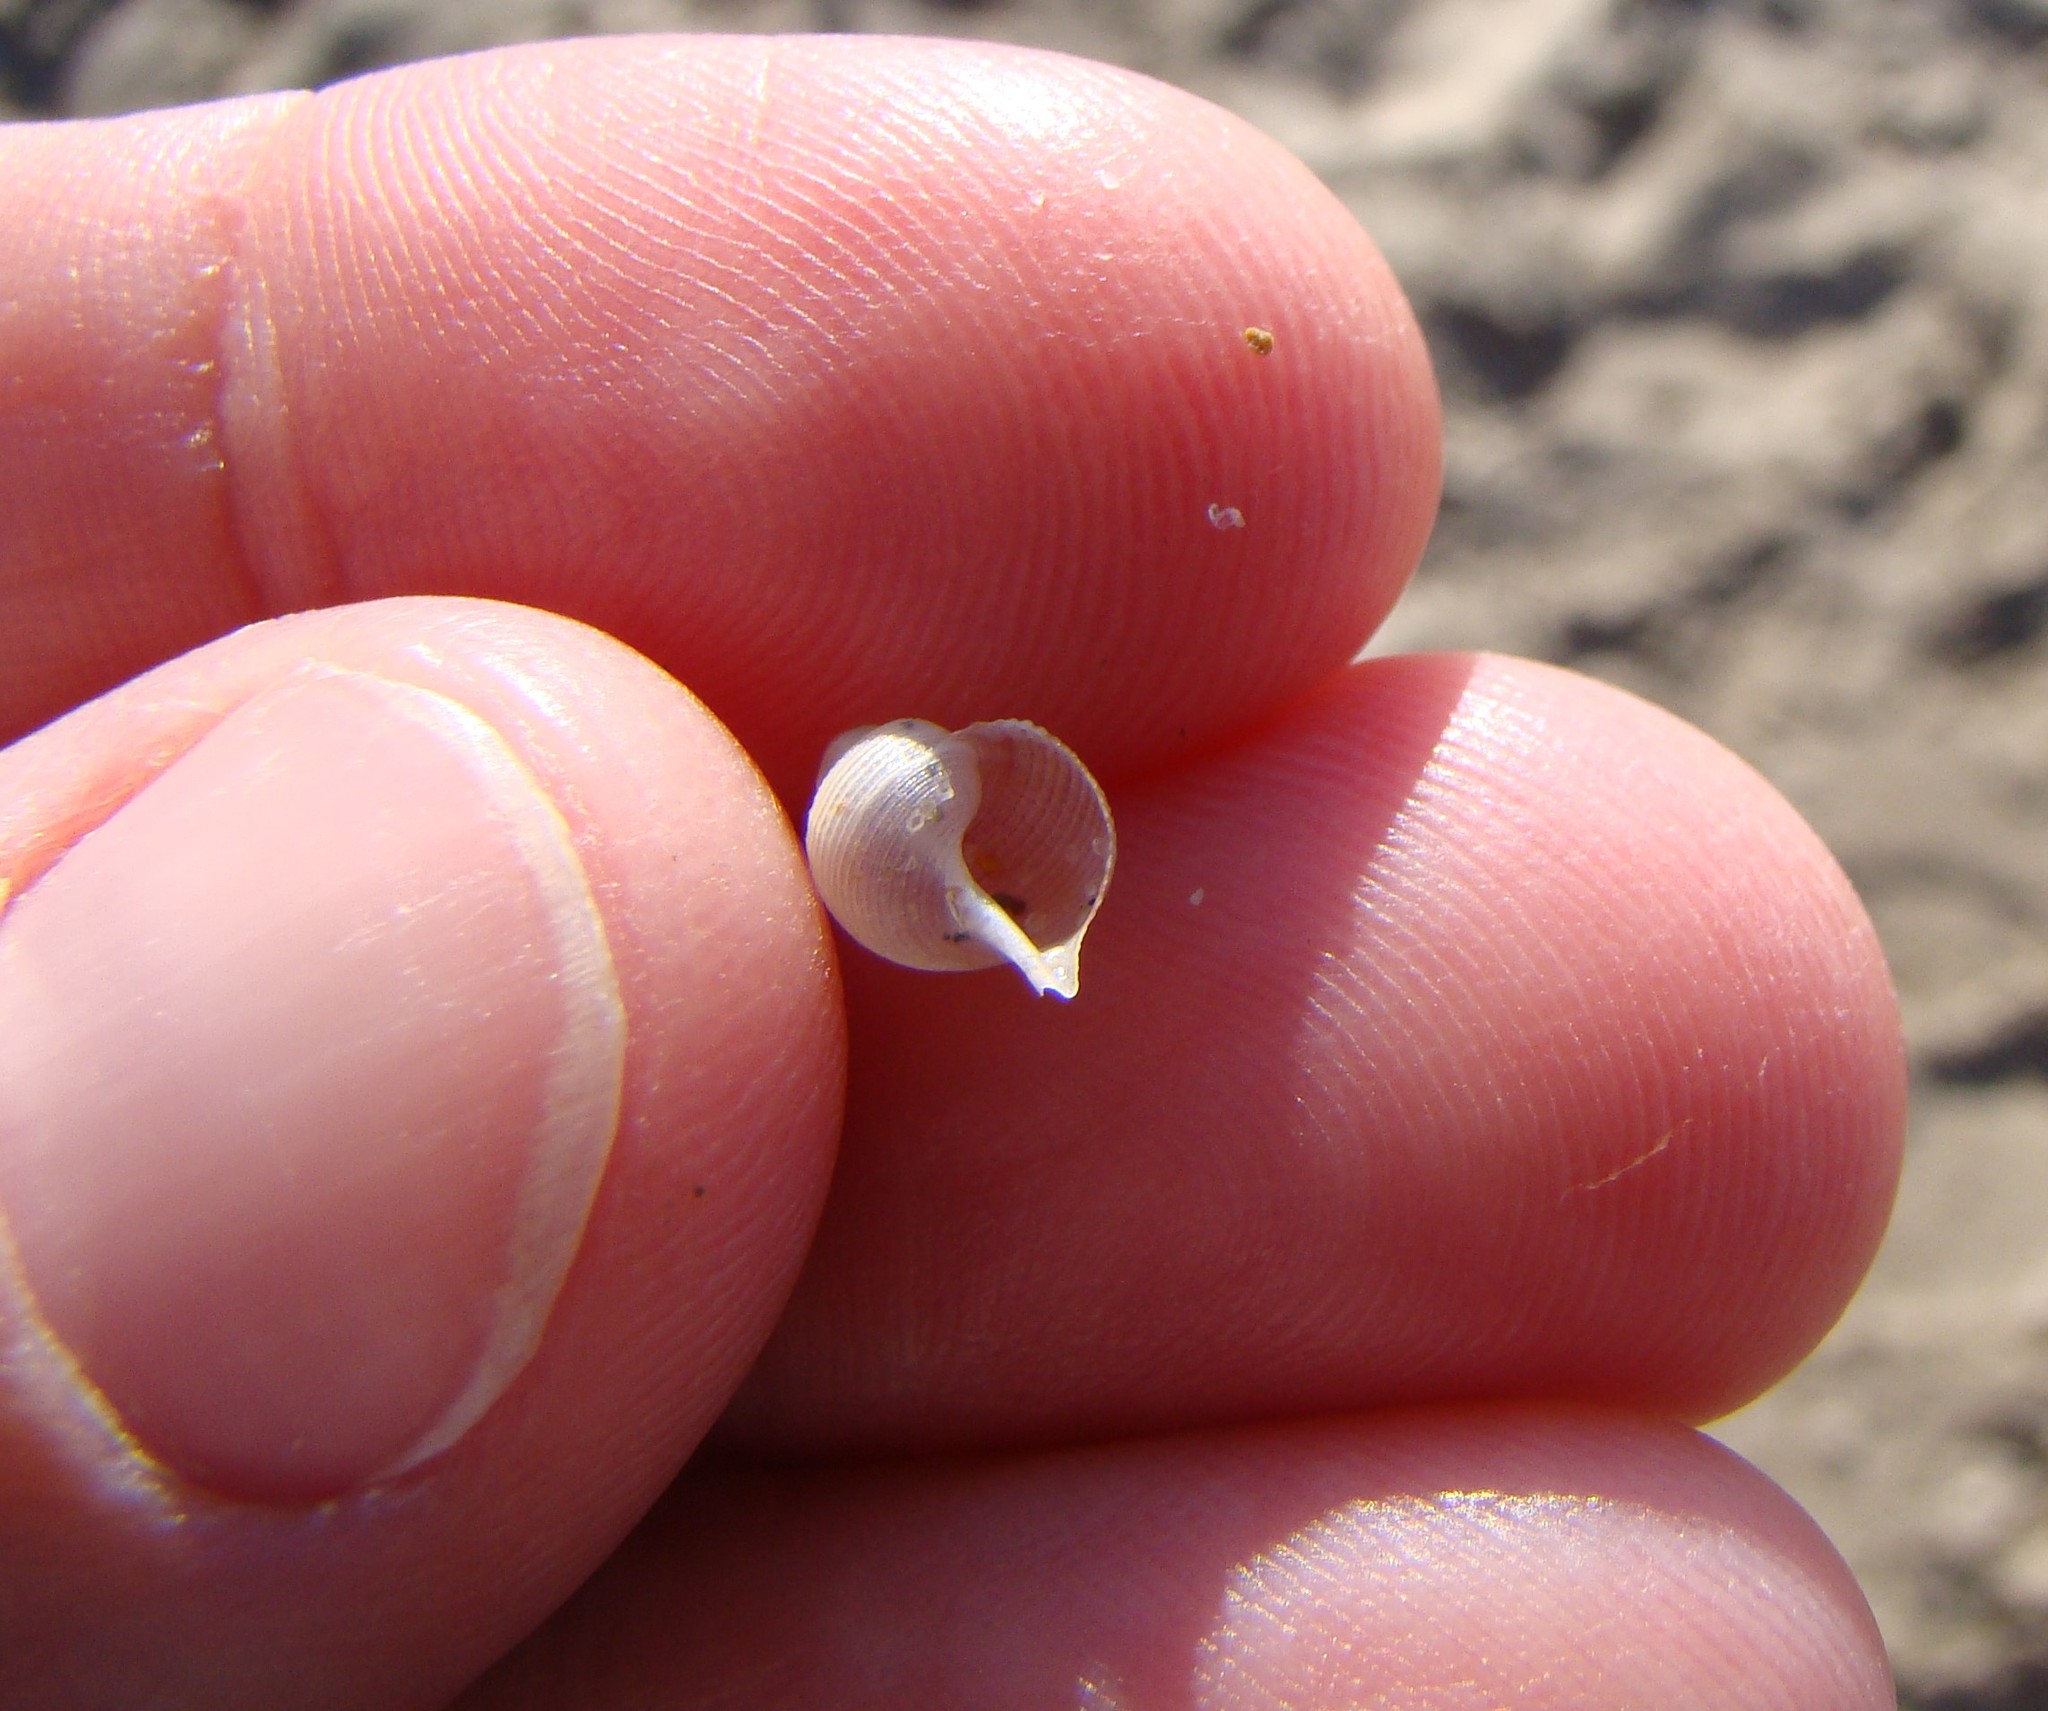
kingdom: Animalia
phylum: Mollusca
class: Gastropoda
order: Littorinimorpha
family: Struthiolariidae
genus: Struthiolaria
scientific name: Struthiolaria papulosa
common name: Large ostrich foot
